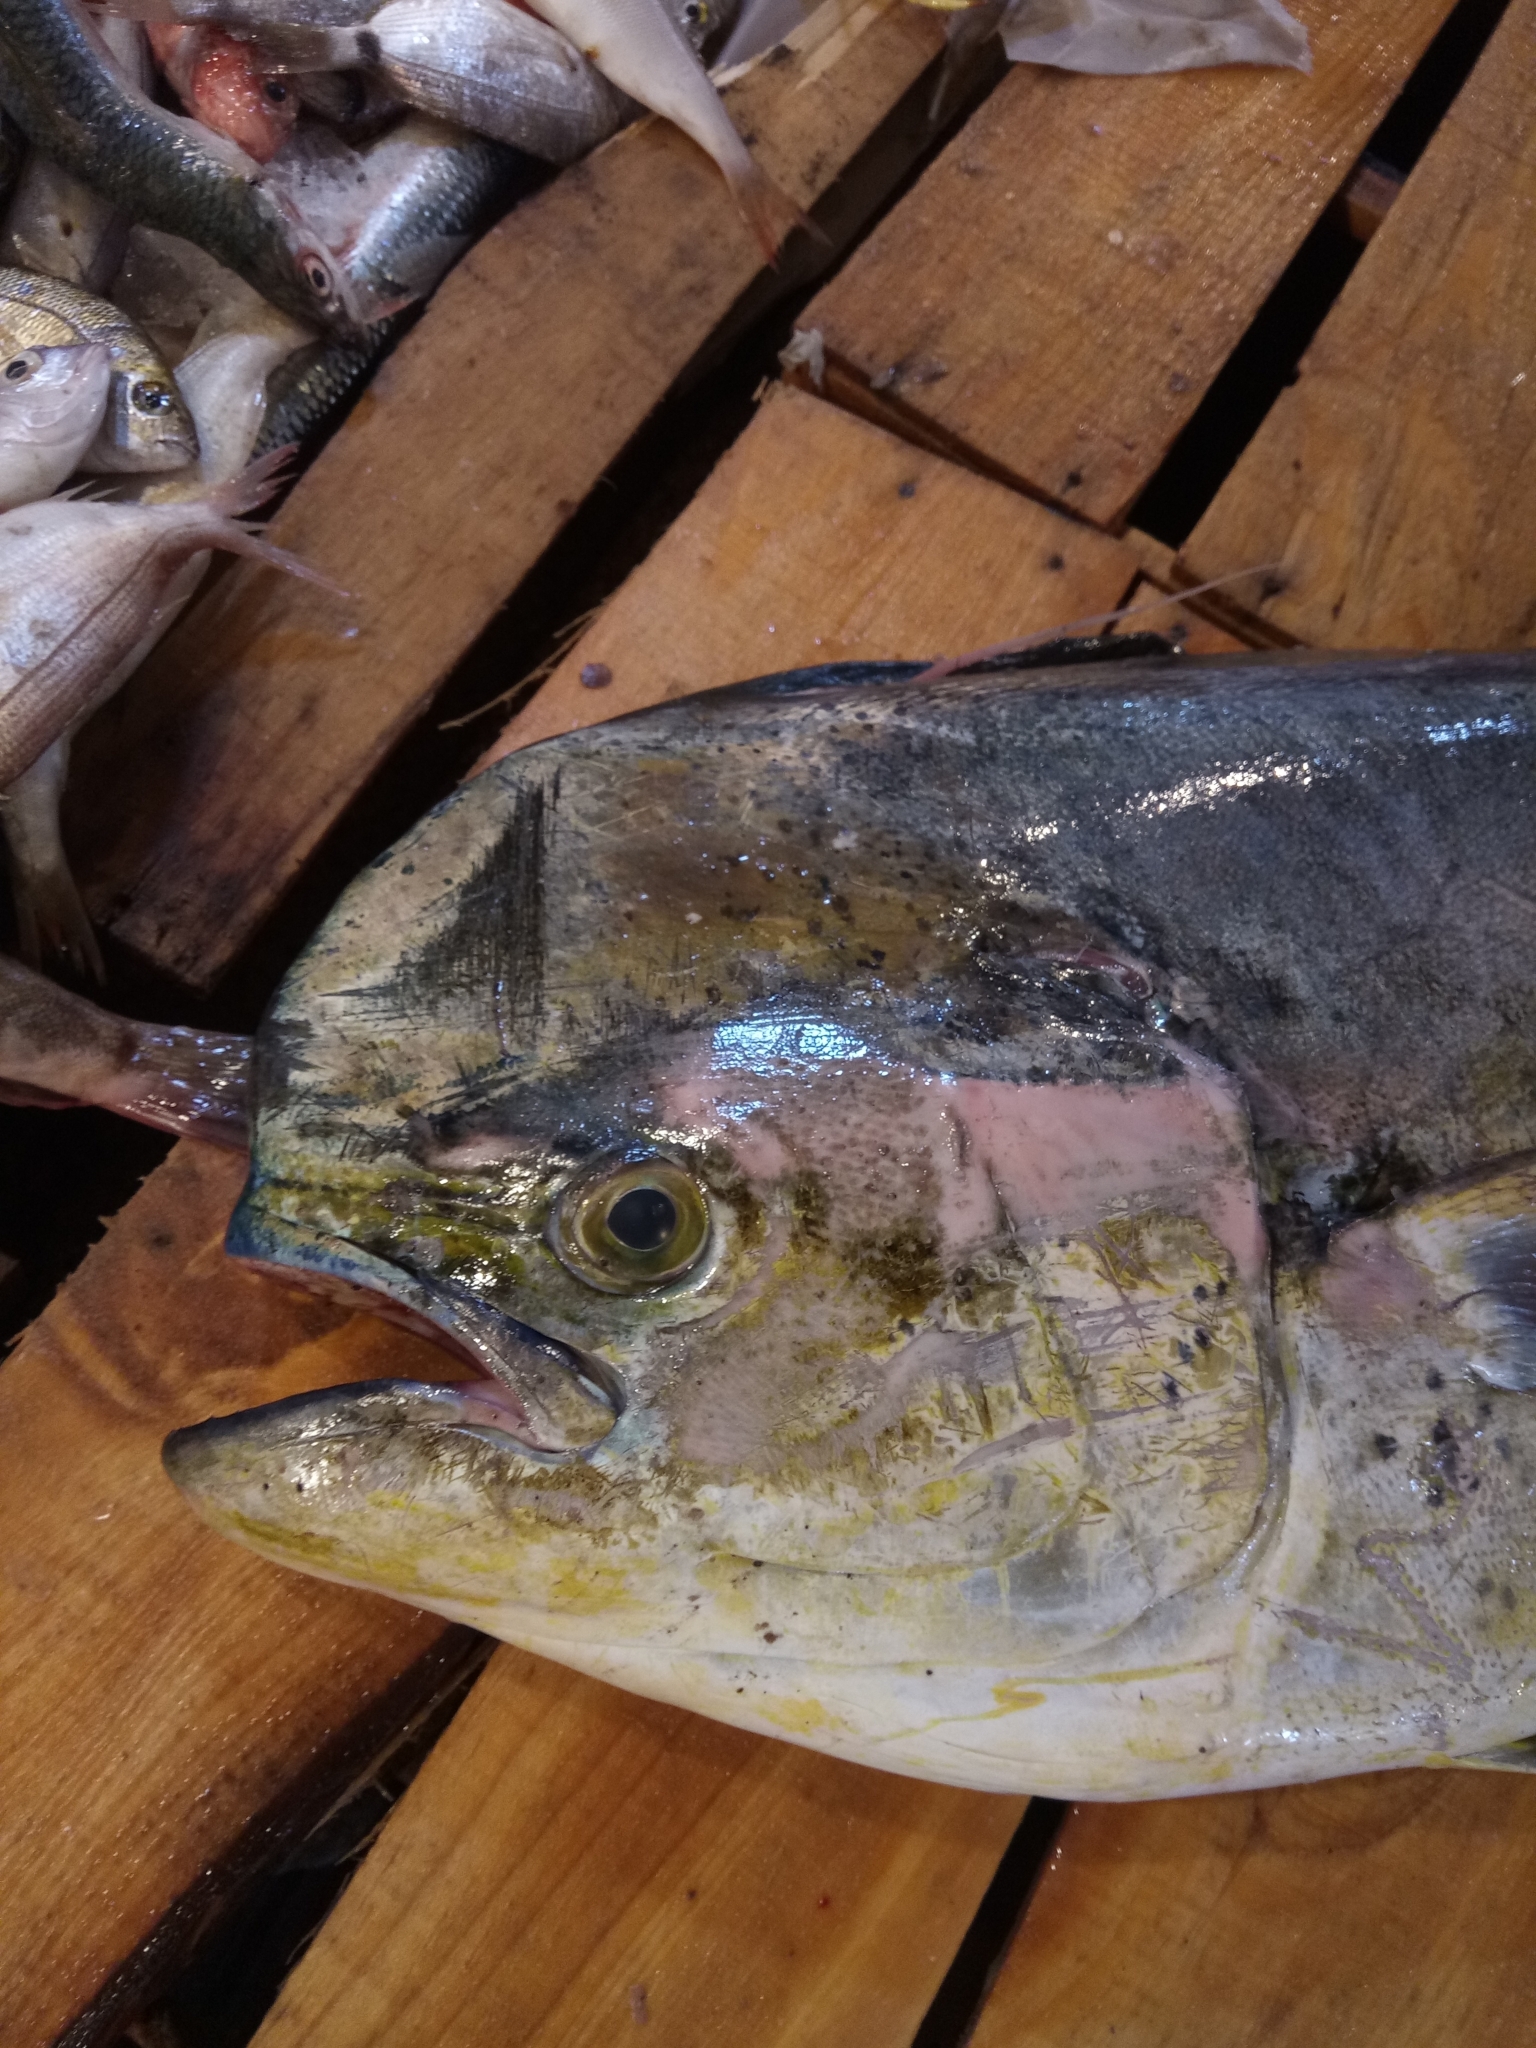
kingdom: Animalia
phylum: Chordata
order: Perciformes
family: Coryphaenidae
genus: Coryphaena
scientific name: Coryphaena hippurus
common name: Dolphin
